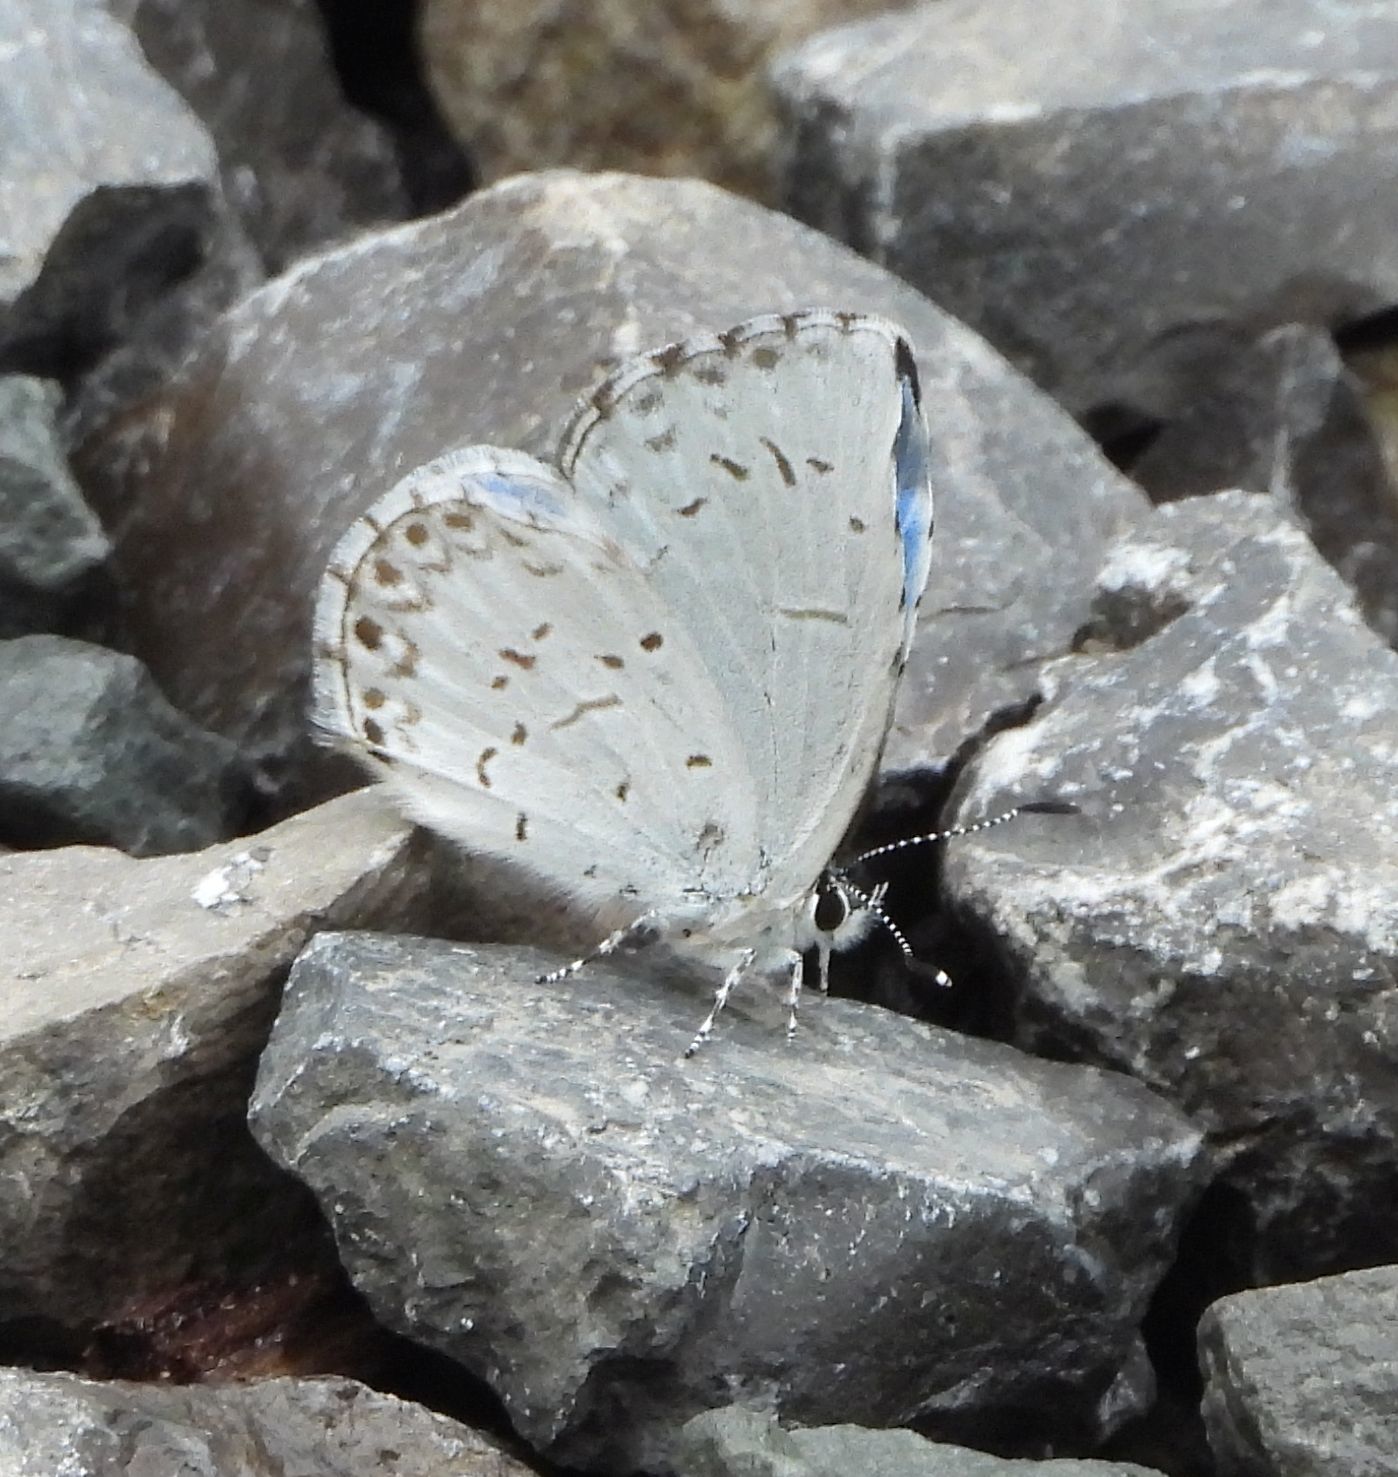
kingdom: Animalia
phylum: Arthropoda
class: Insecta
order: Lepidoptera
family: Lycaenidae
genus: Celastrina
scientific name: Celastrina lucia
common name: Lucia azure
